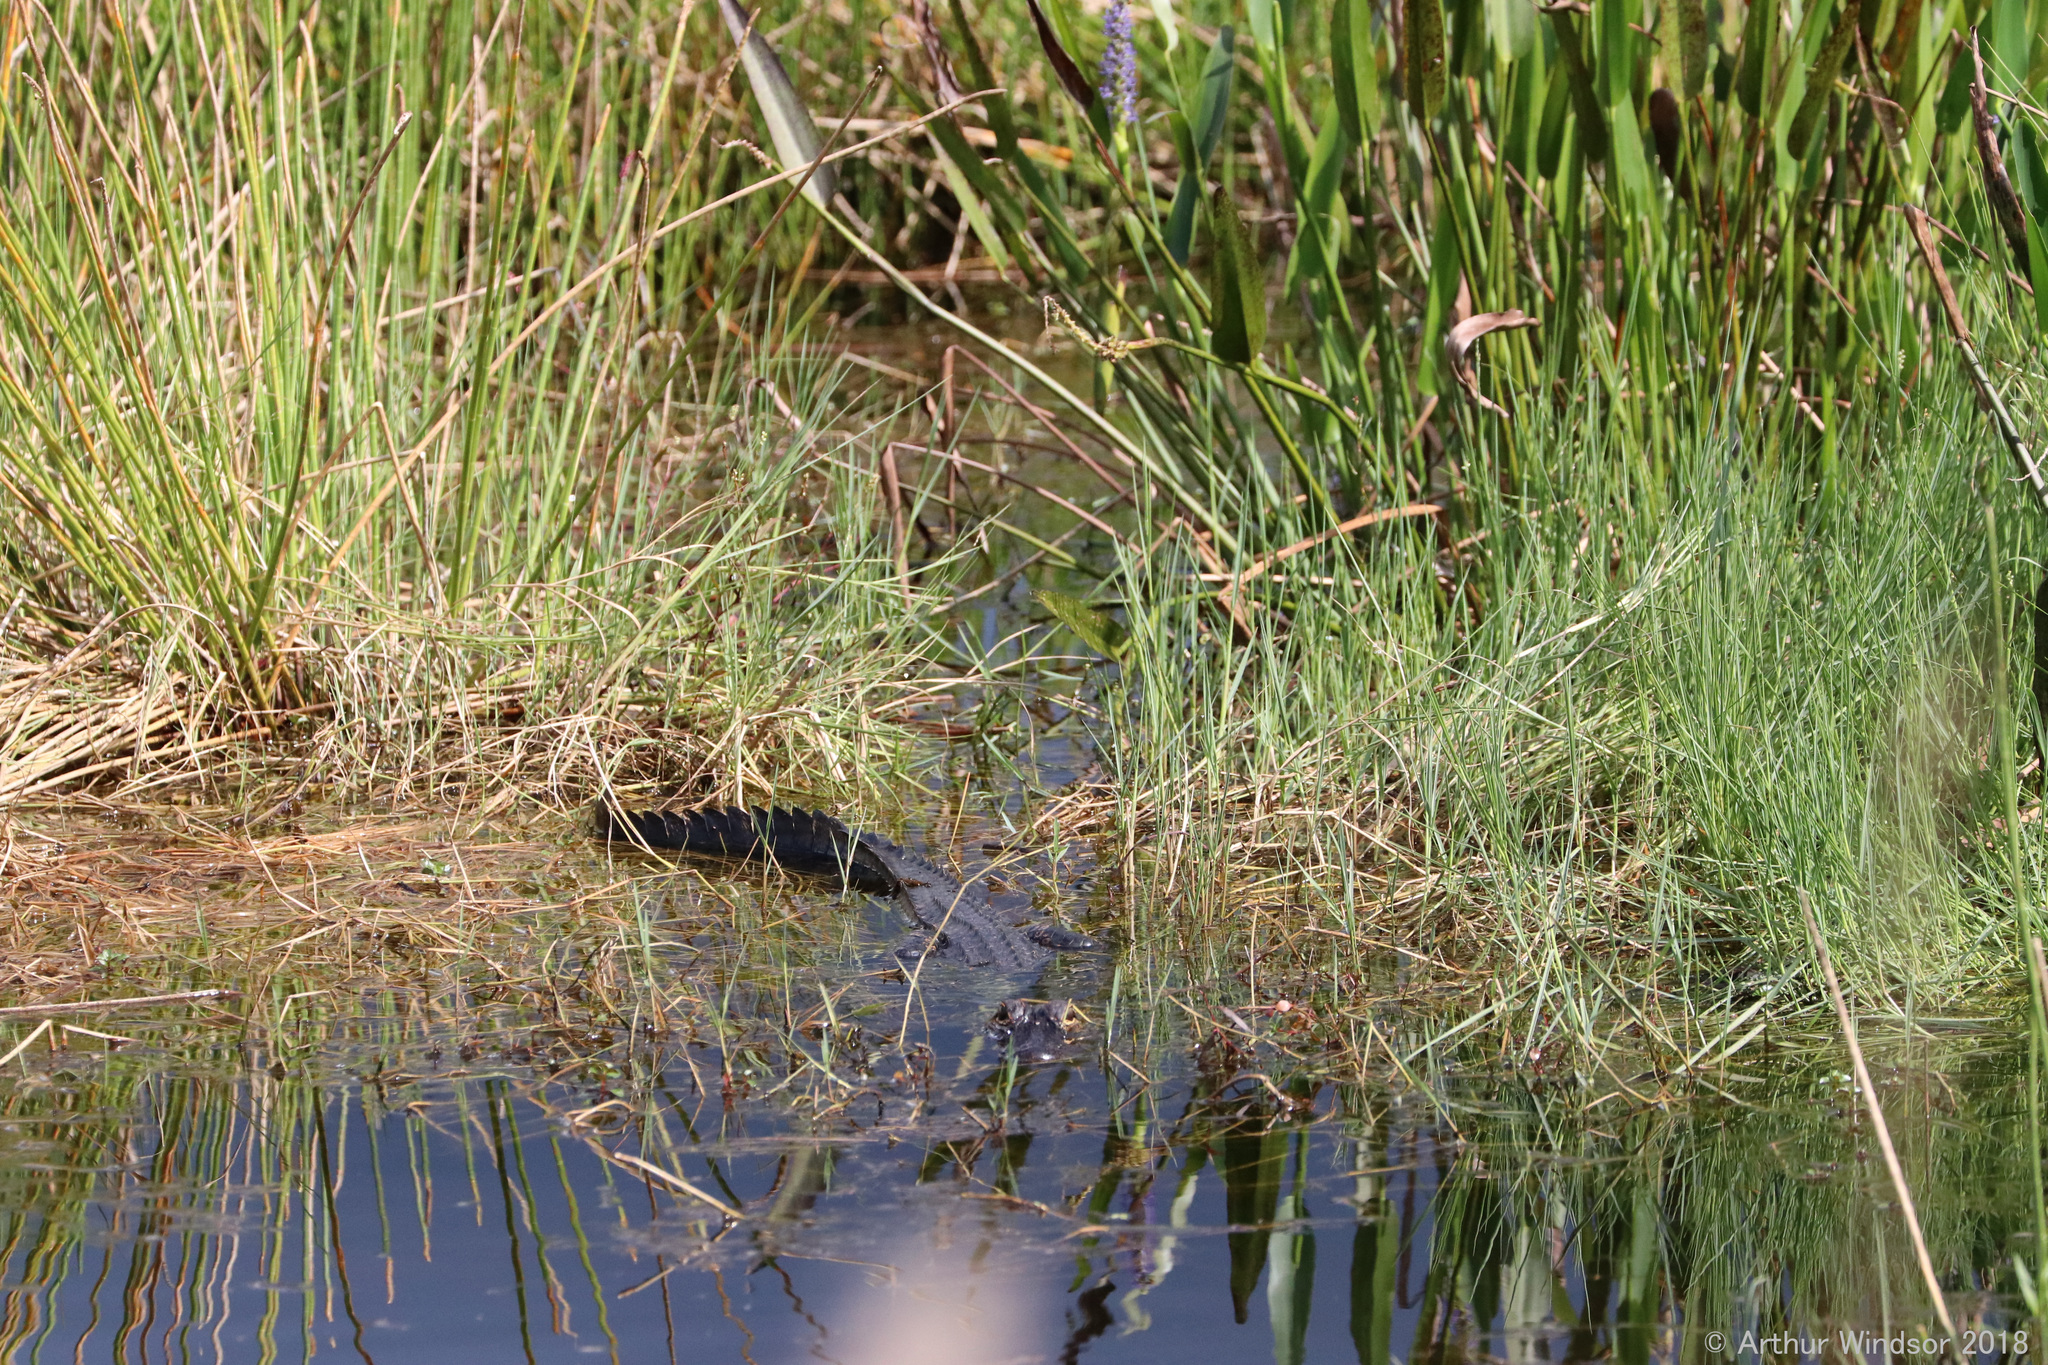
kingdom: Animalia
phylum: Chordata
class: Crocodylia
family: Alligatoridae
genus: Alligator
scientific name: Alligator mississippiensis
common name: American alligator
